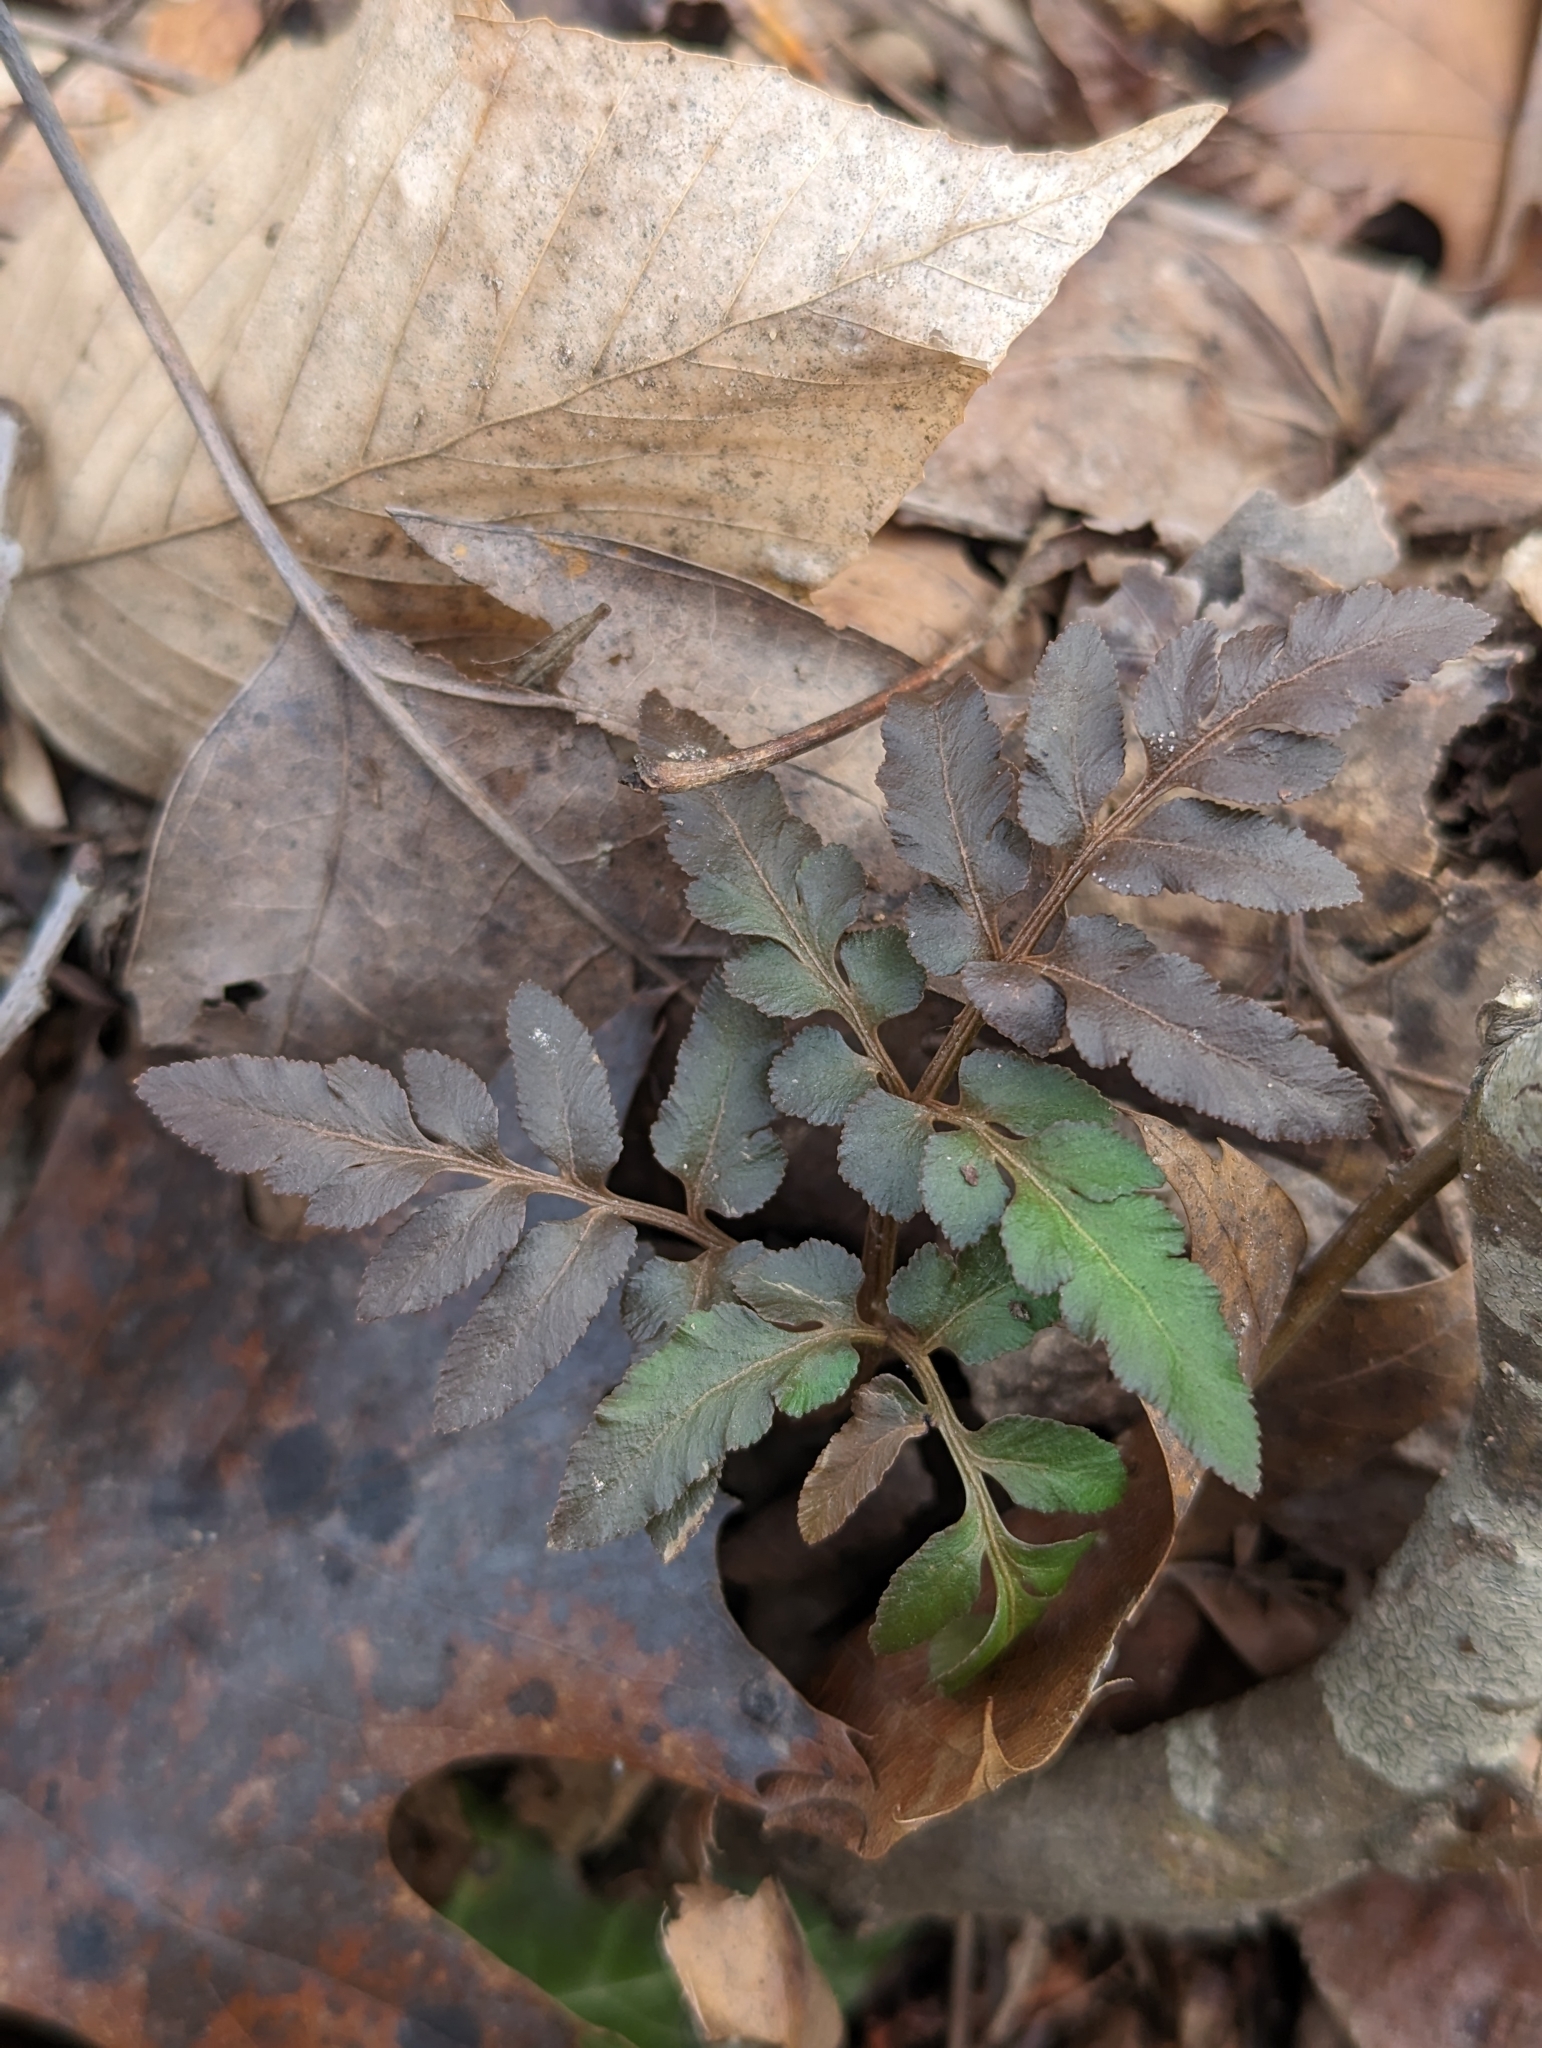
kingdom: Plantae
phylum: Tracheophyta
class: Polypodiopsida
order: Ophioglossales
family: Ophioglossaceae
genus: Sceptridium
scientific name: Sceptridium dissectum
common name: Cut-leaved grapefern
